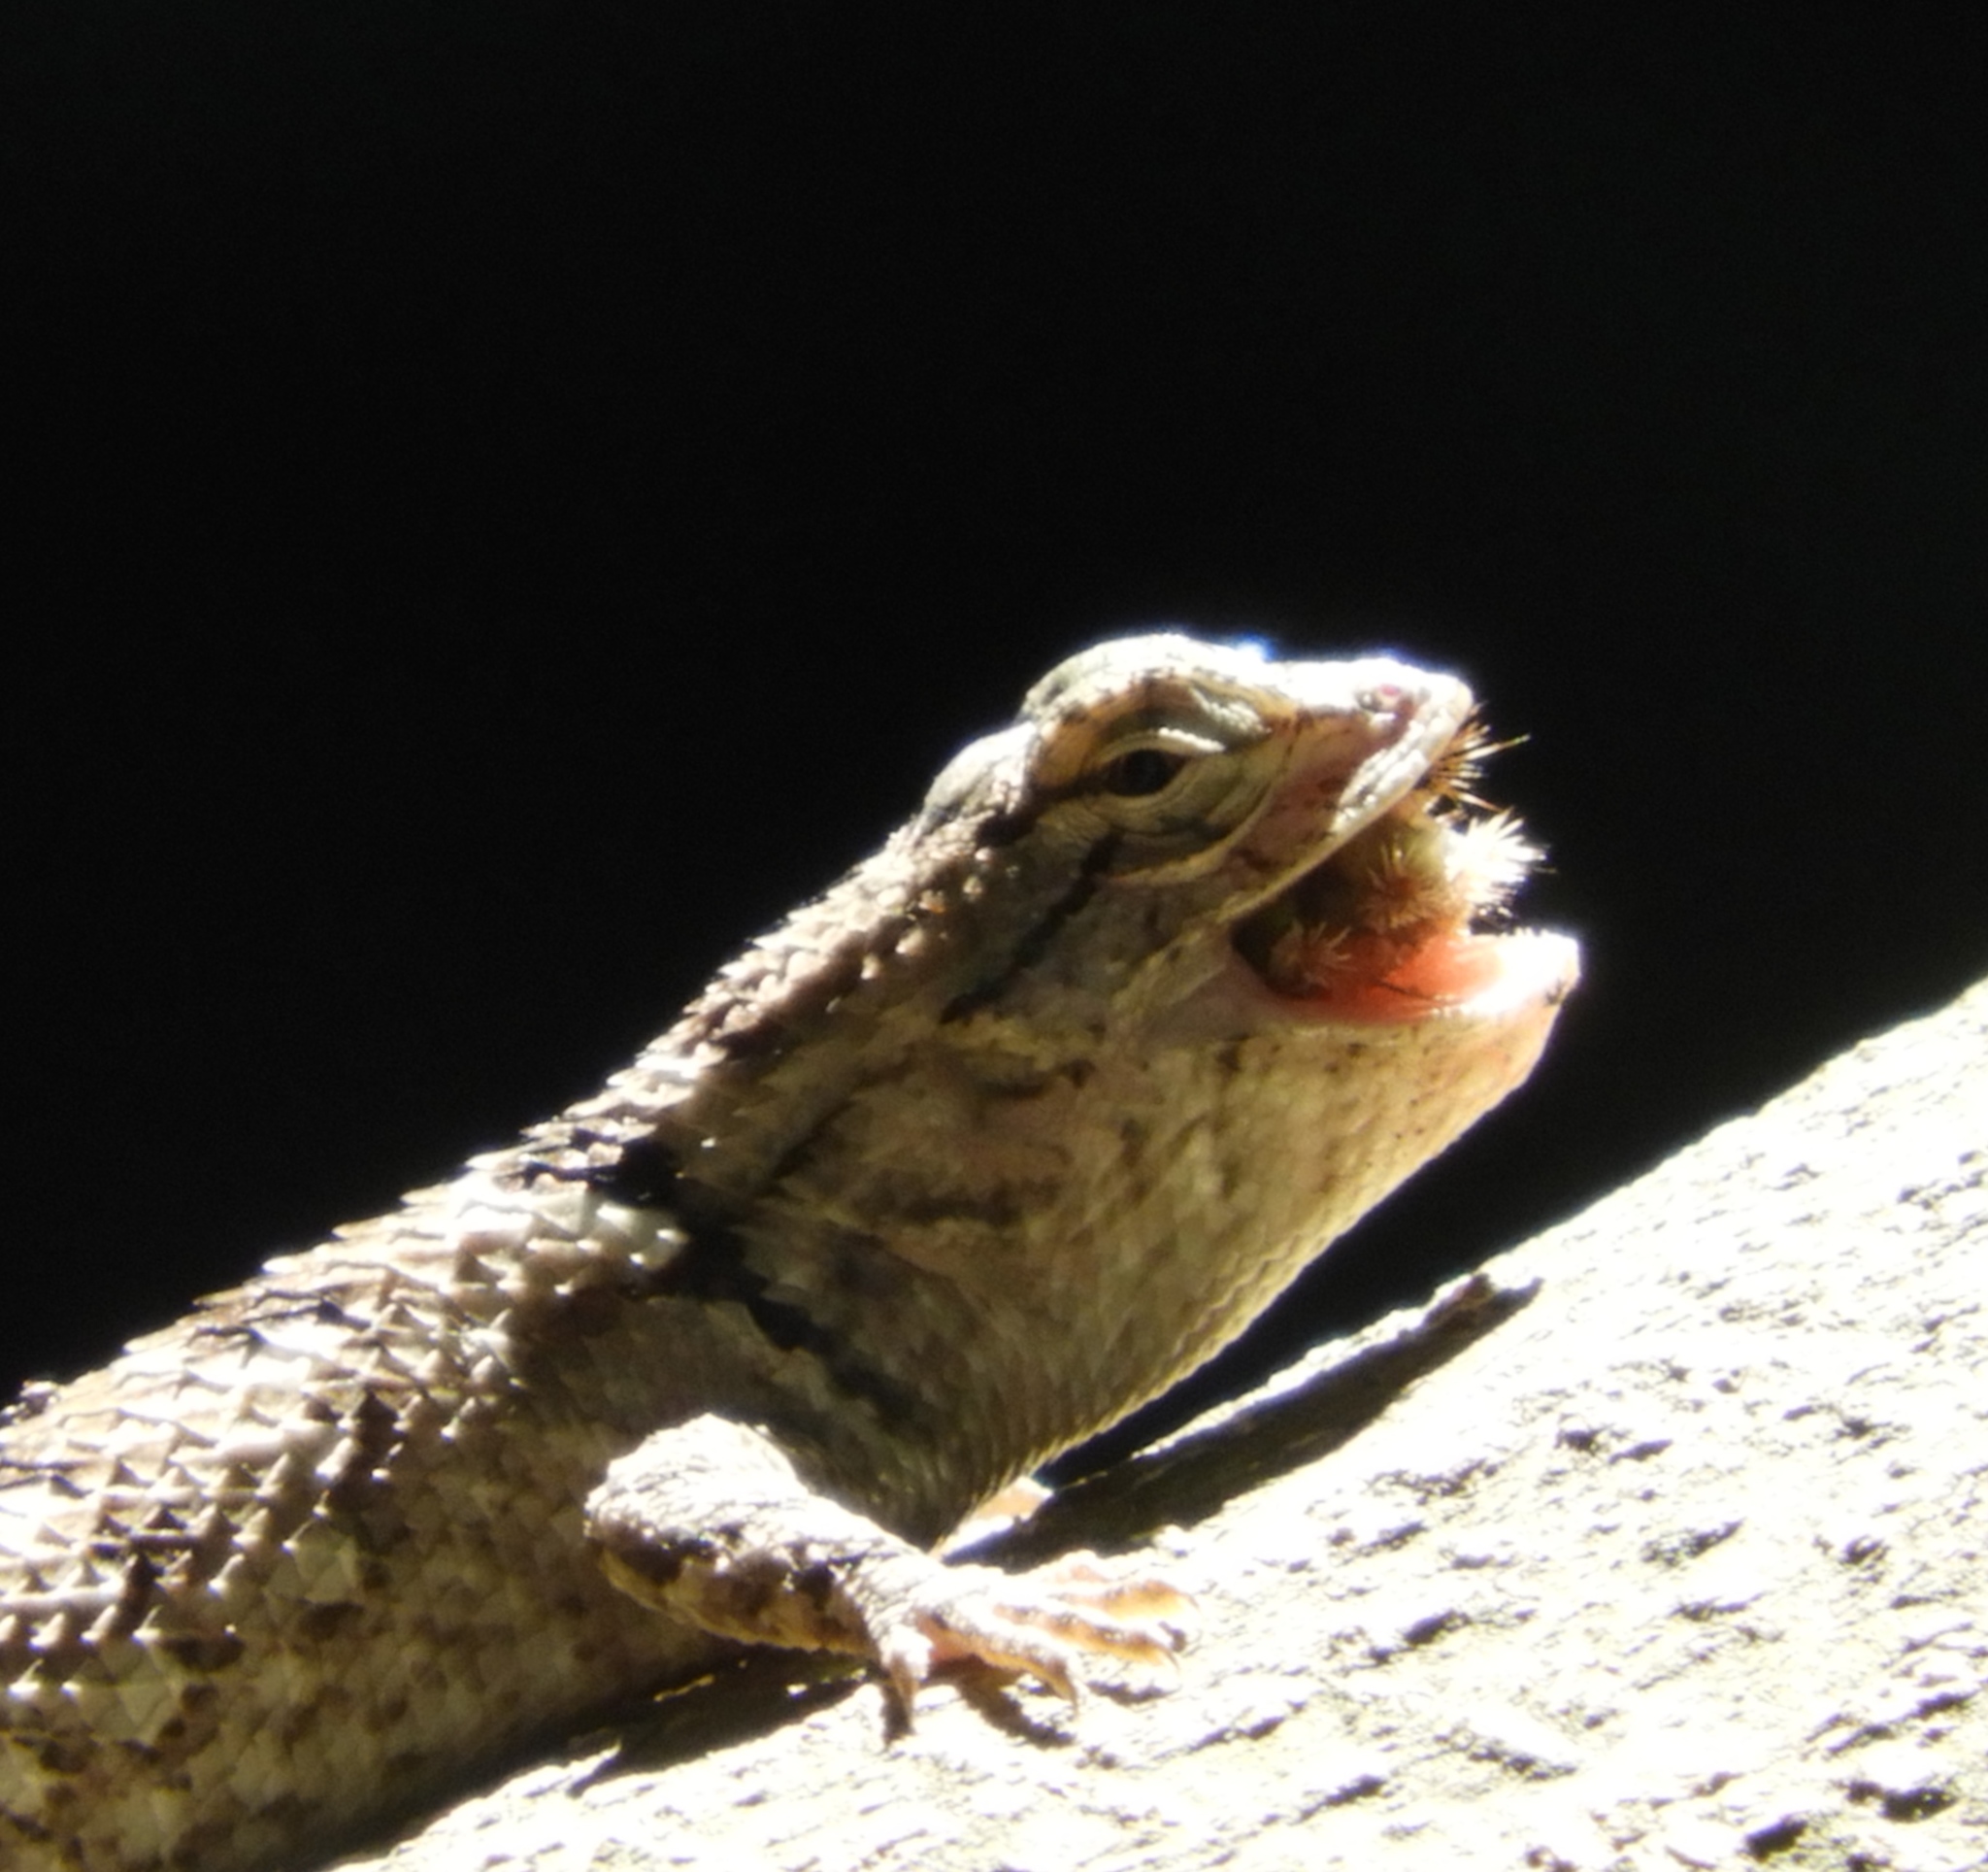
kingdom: Animalia
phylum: Chordata
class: Squamata
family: Phrynosomatidae
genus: Sceloporus
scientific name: Sceloporus clarkii
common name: Clark's spiny lizard
